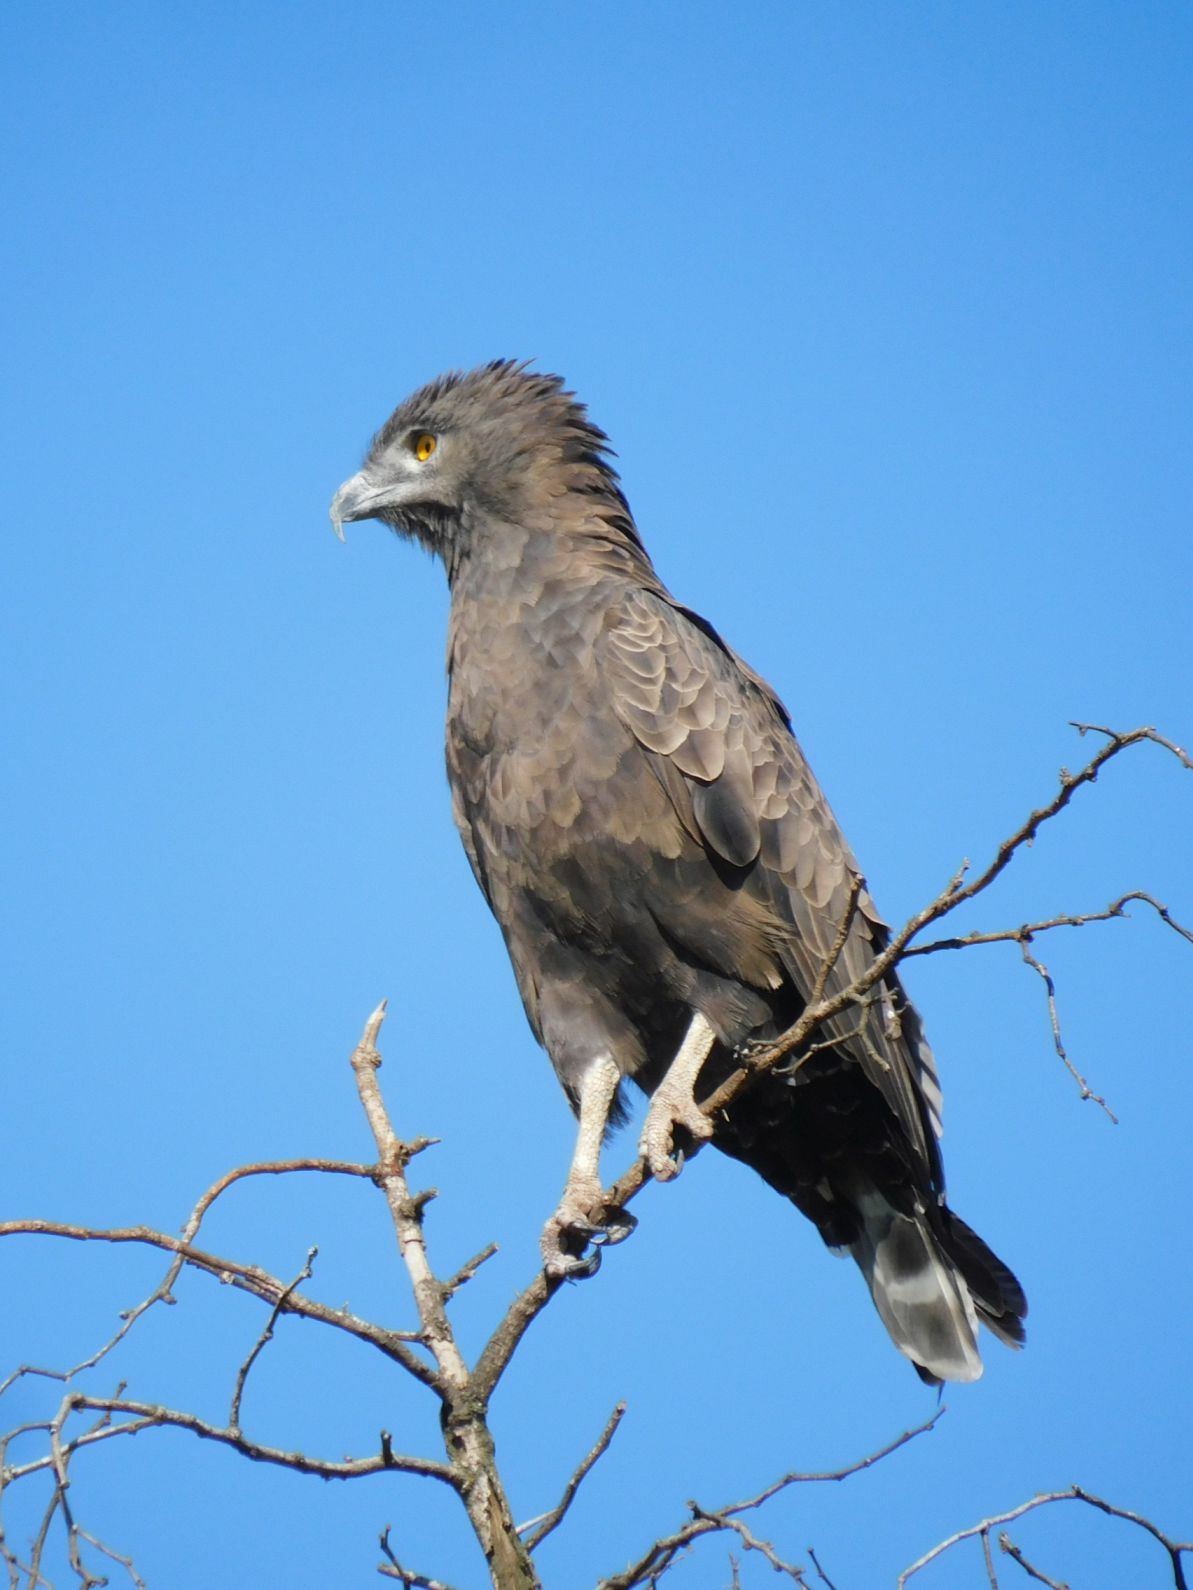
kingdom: Animalia
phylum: Chordata
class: Aves
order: Accipitriformes
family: Accipitridae
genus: Circaetus
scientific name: Circaetus cinereus
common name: Brown snake eagle
